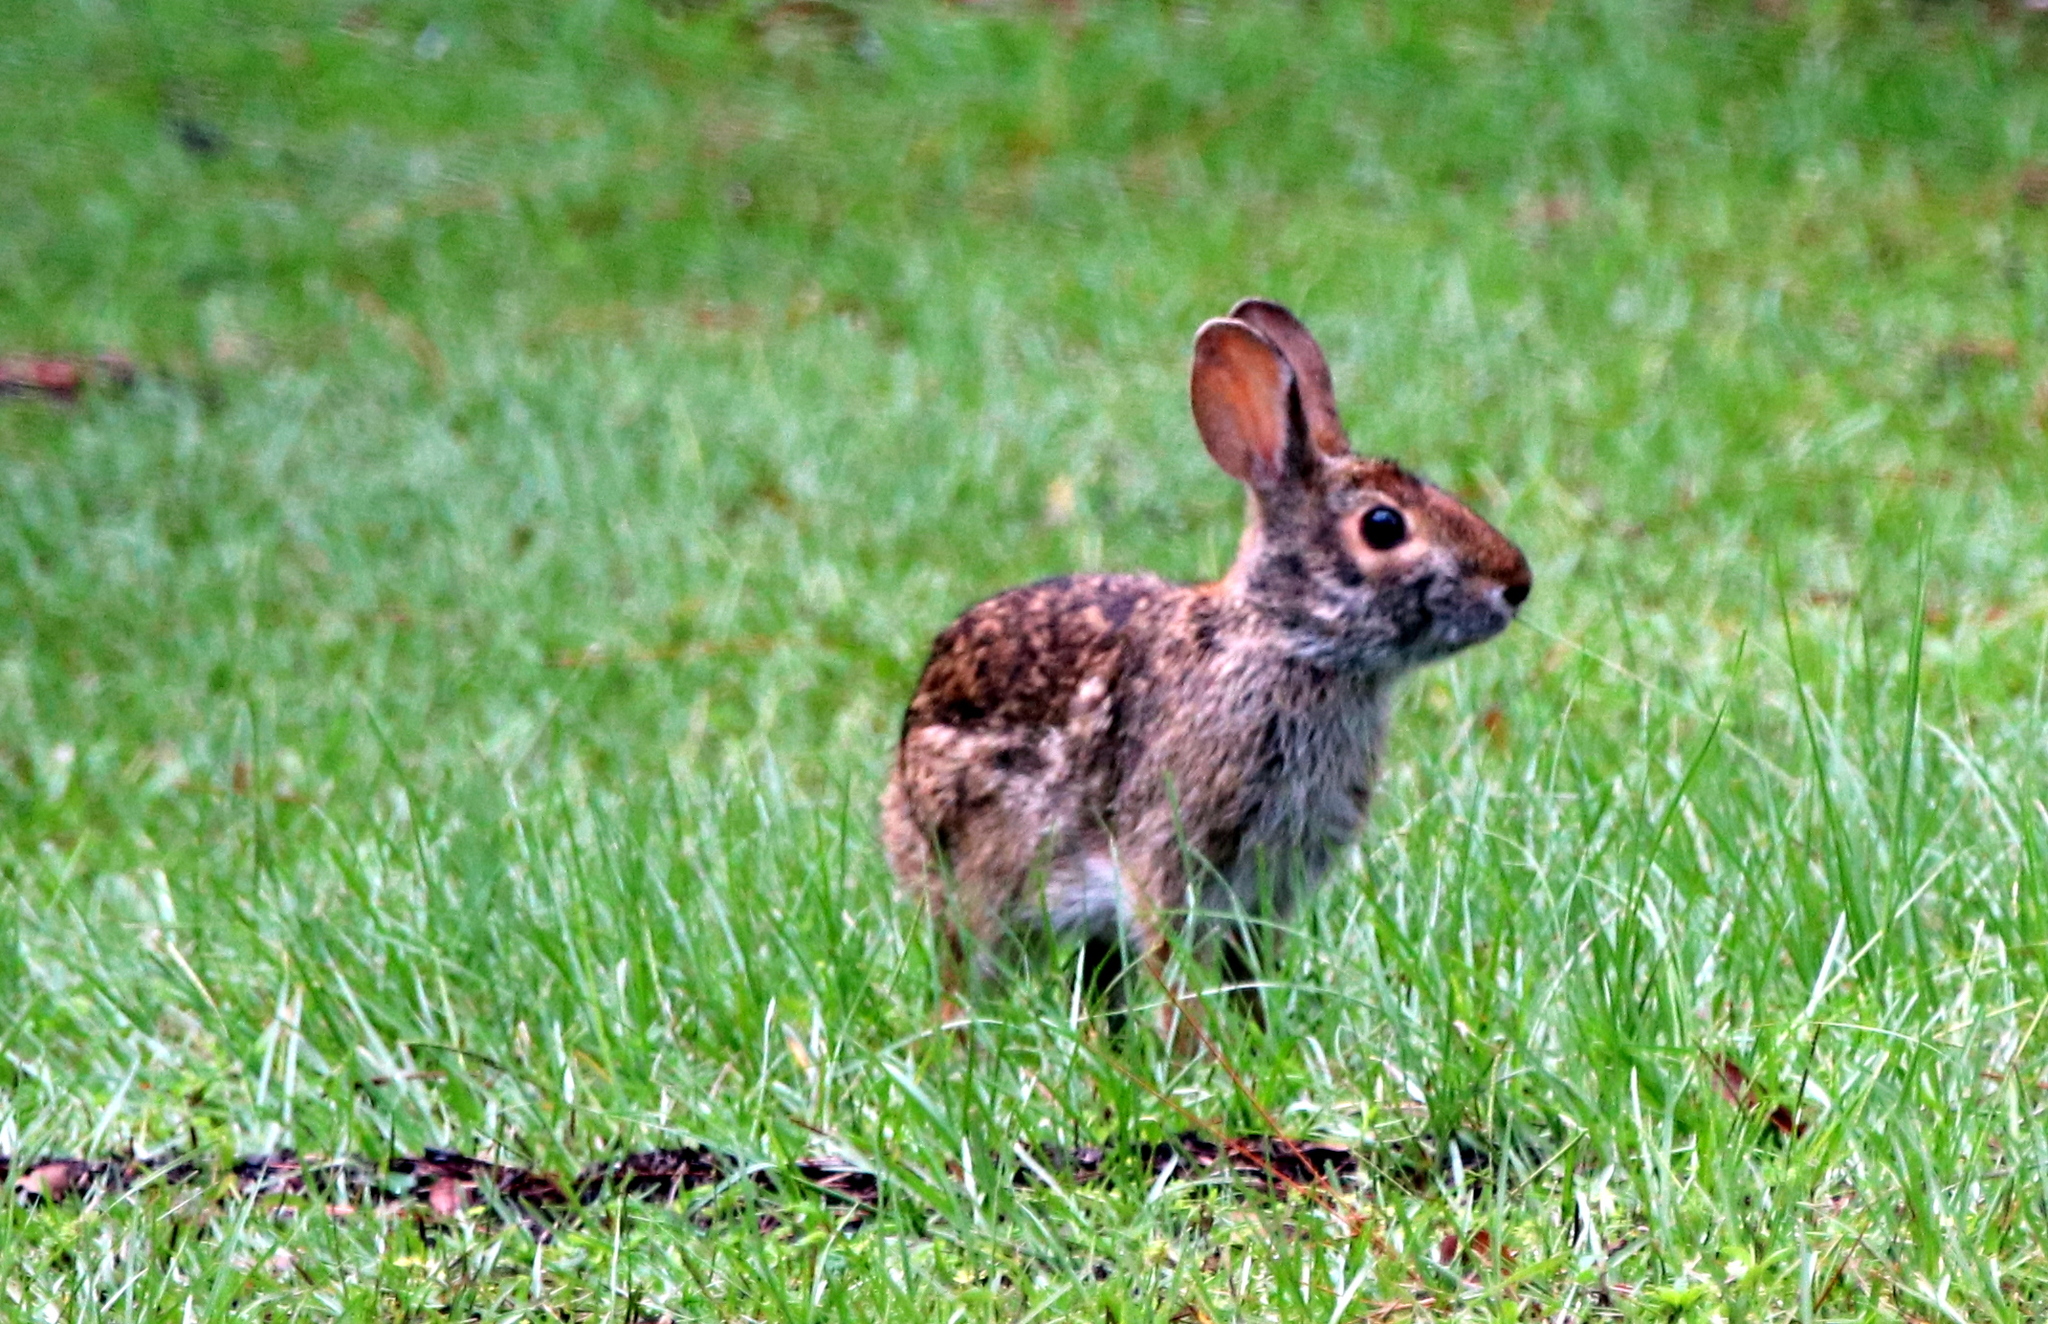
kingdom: Animalia
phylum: Chordata
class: Mammalia
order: Lagomorpha
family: Leporidae
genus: Sylvilagus
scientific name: Sylvilagus aquaticus
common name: Swamp rabbit
